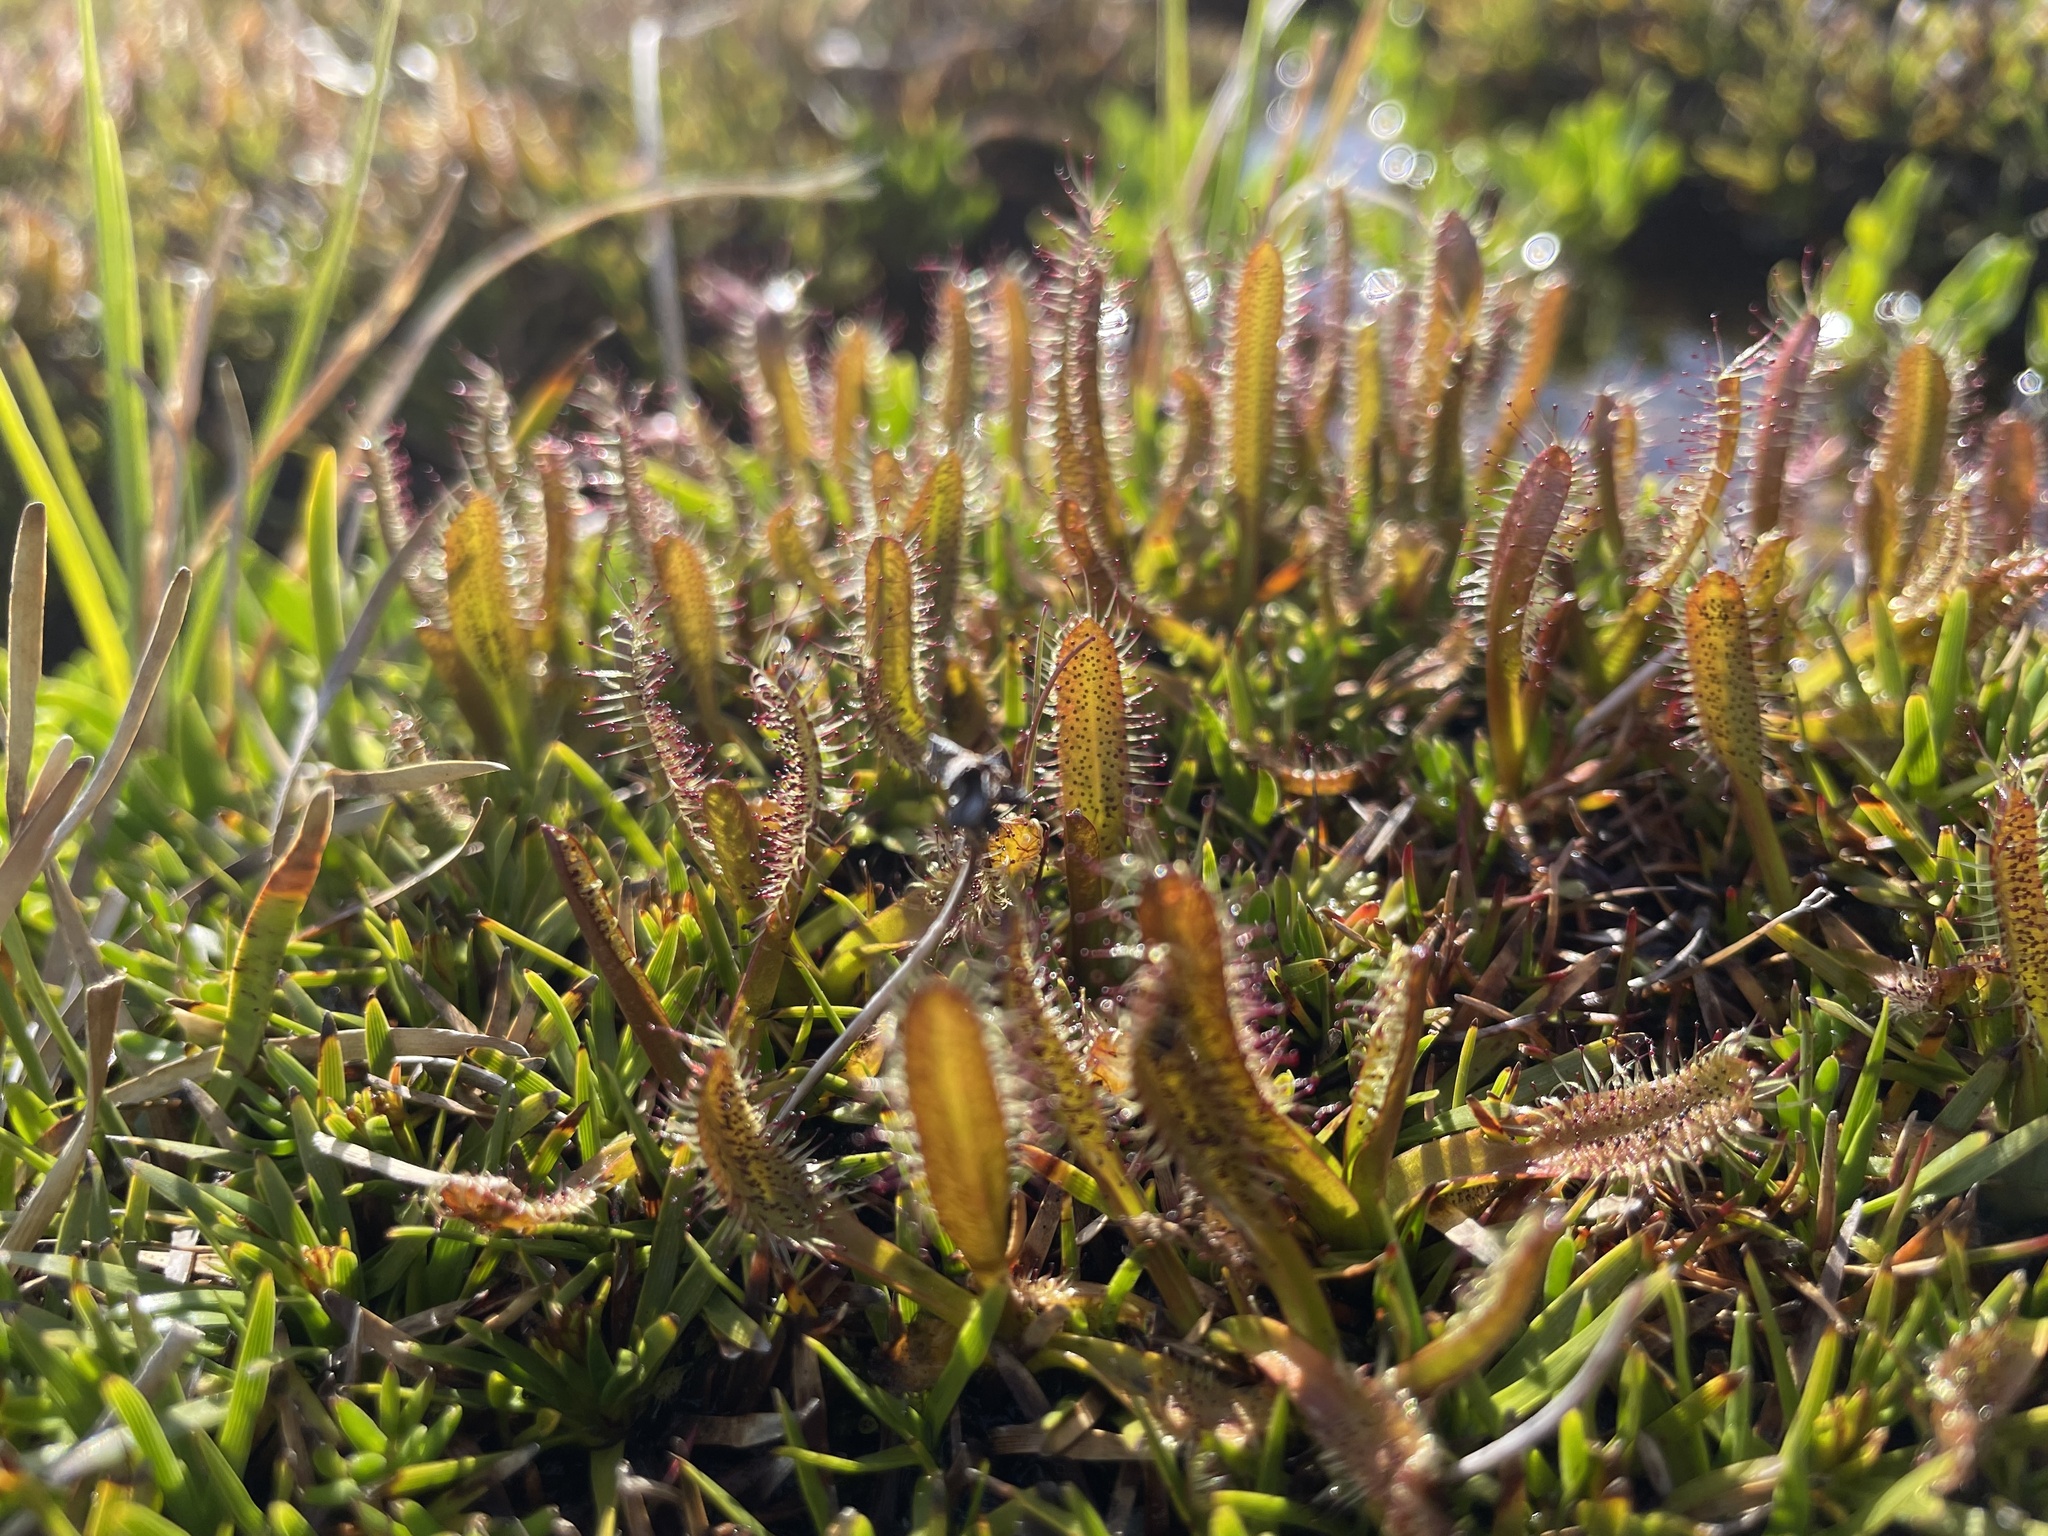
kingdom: Plantae
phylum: Tracheophyta
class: Magnoliopsida
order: Caryophyllales
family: Droseraceae
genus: Drosera
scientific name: Drosera arcturi
